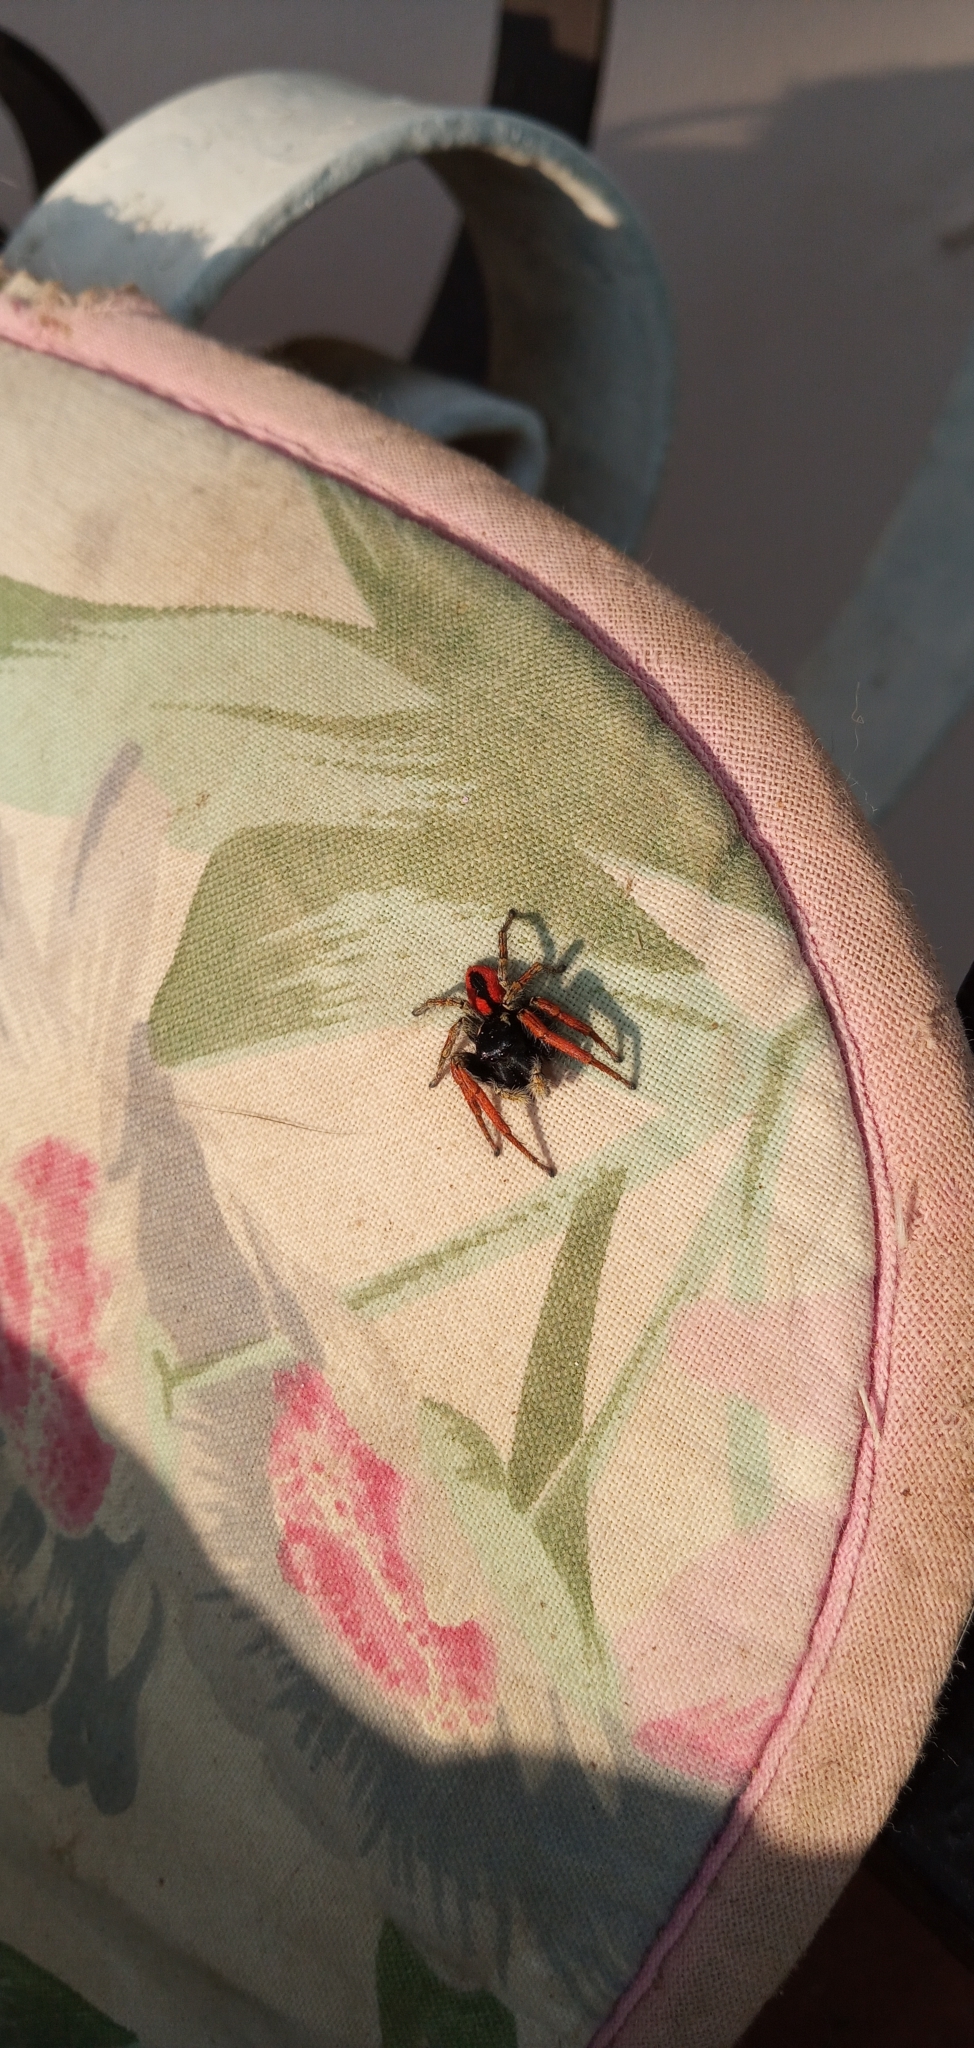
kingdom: Animalia
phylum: Arthropoda
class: Arachnida
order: Araneae
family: Salticidae
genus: Philaeus
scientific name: Philaeus chrysops
